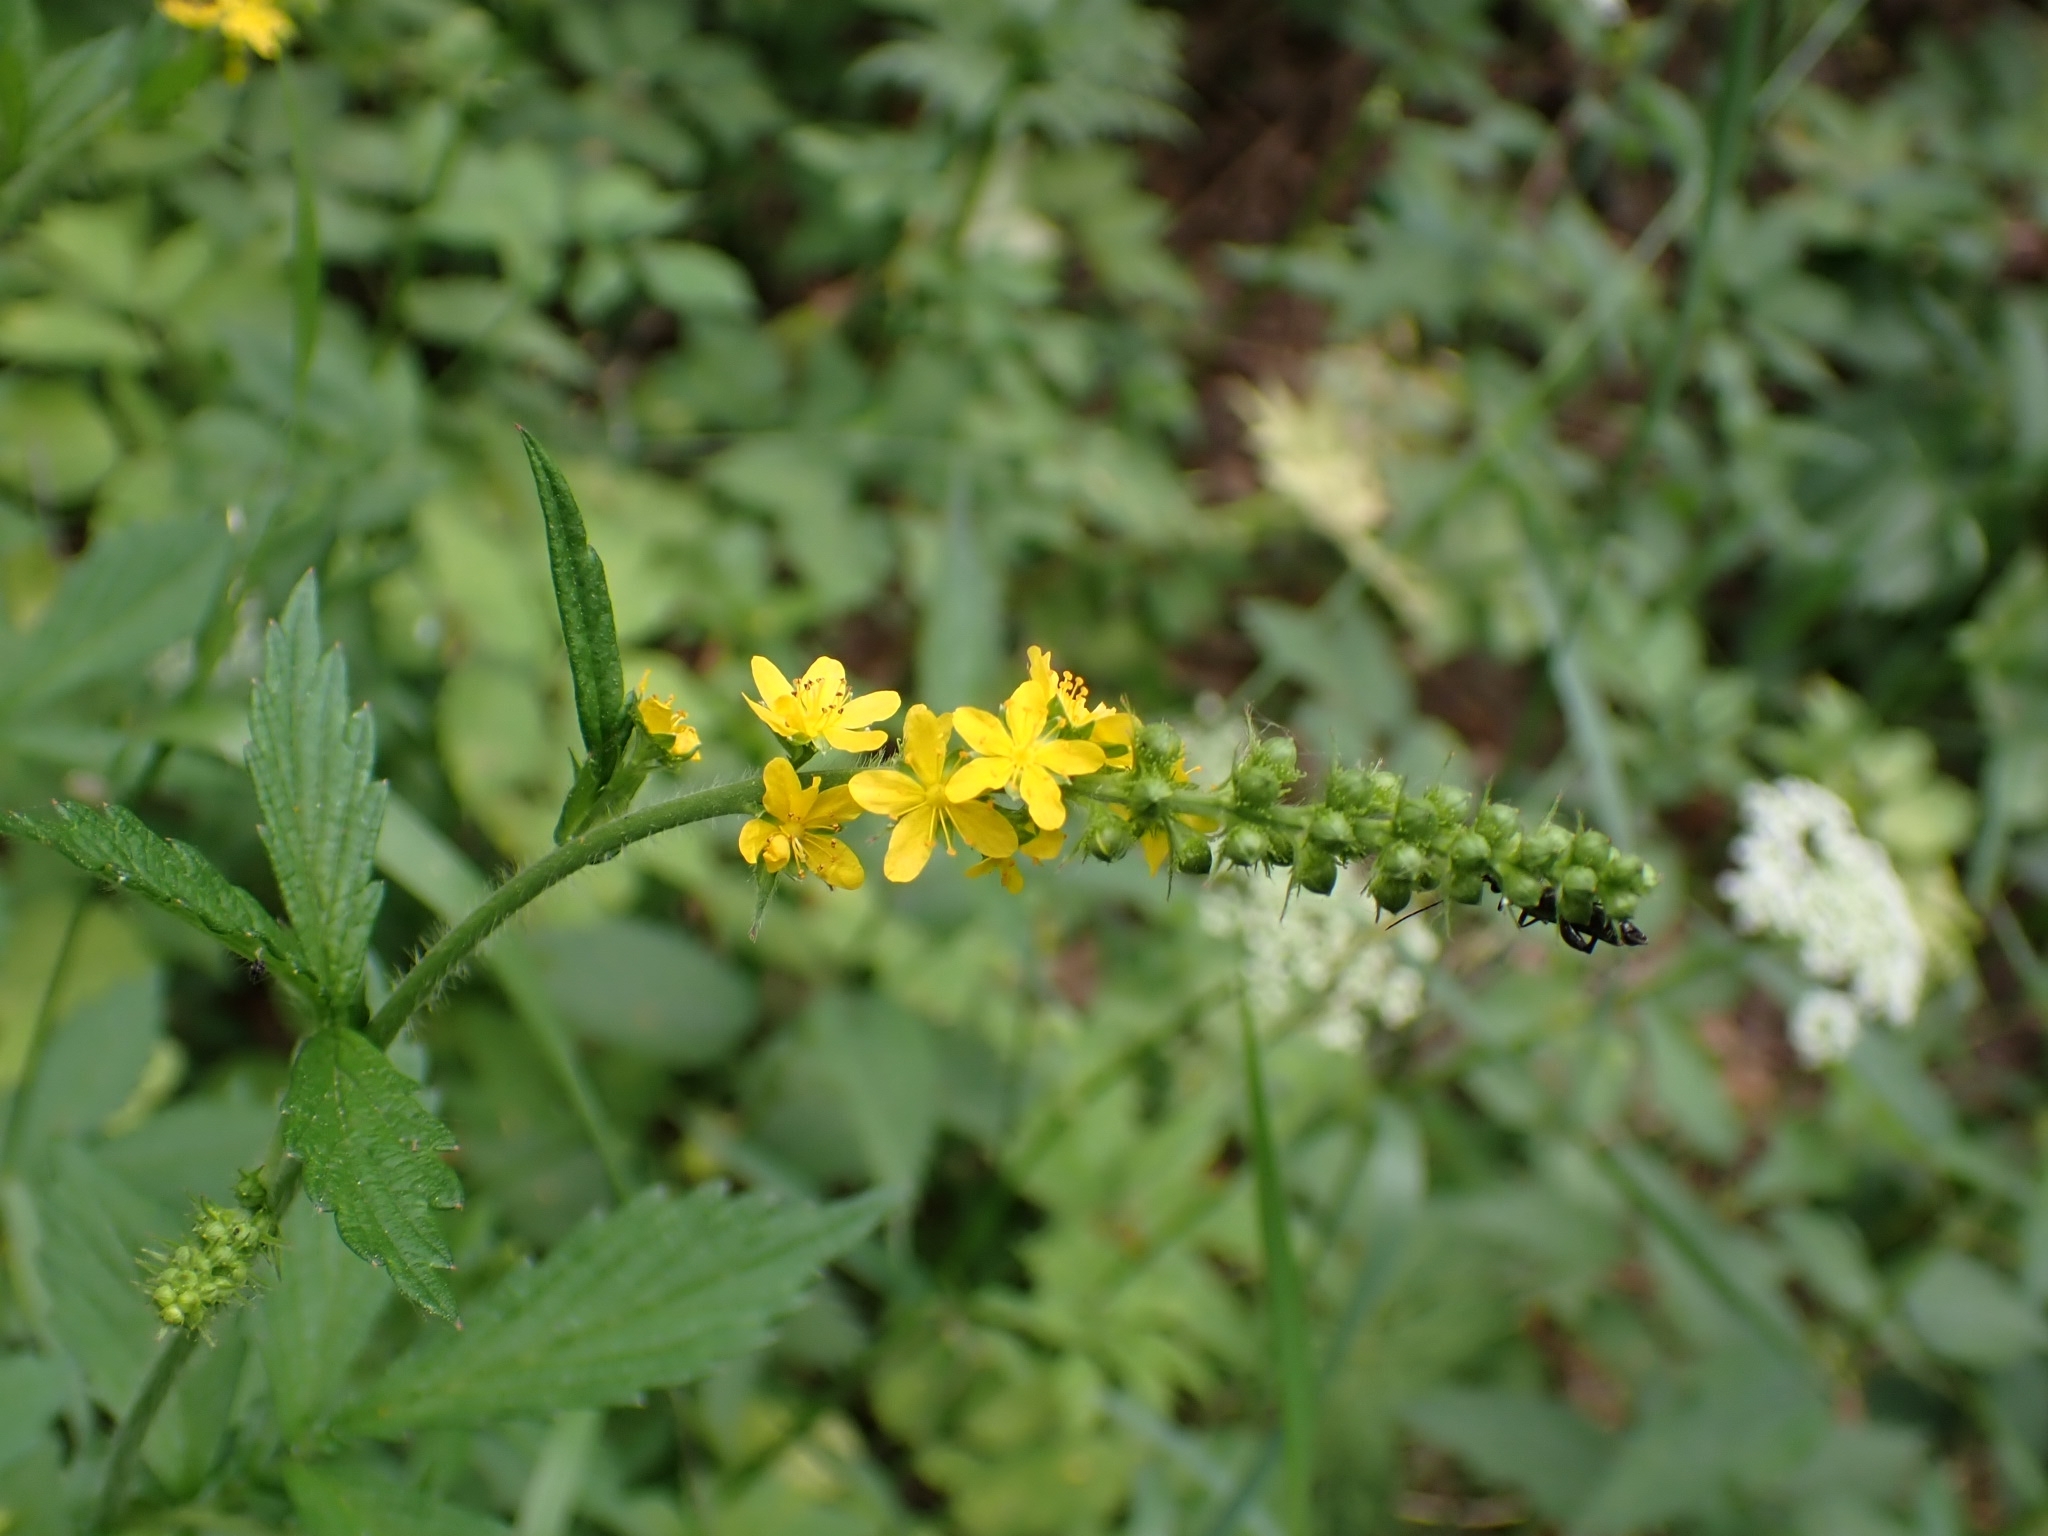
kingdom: Plantae
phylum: Tracheophyta
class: Magnoliopsida
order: Rosales
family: Rosaceae
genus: Agrimonia
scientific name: Agrimonia pilosa
